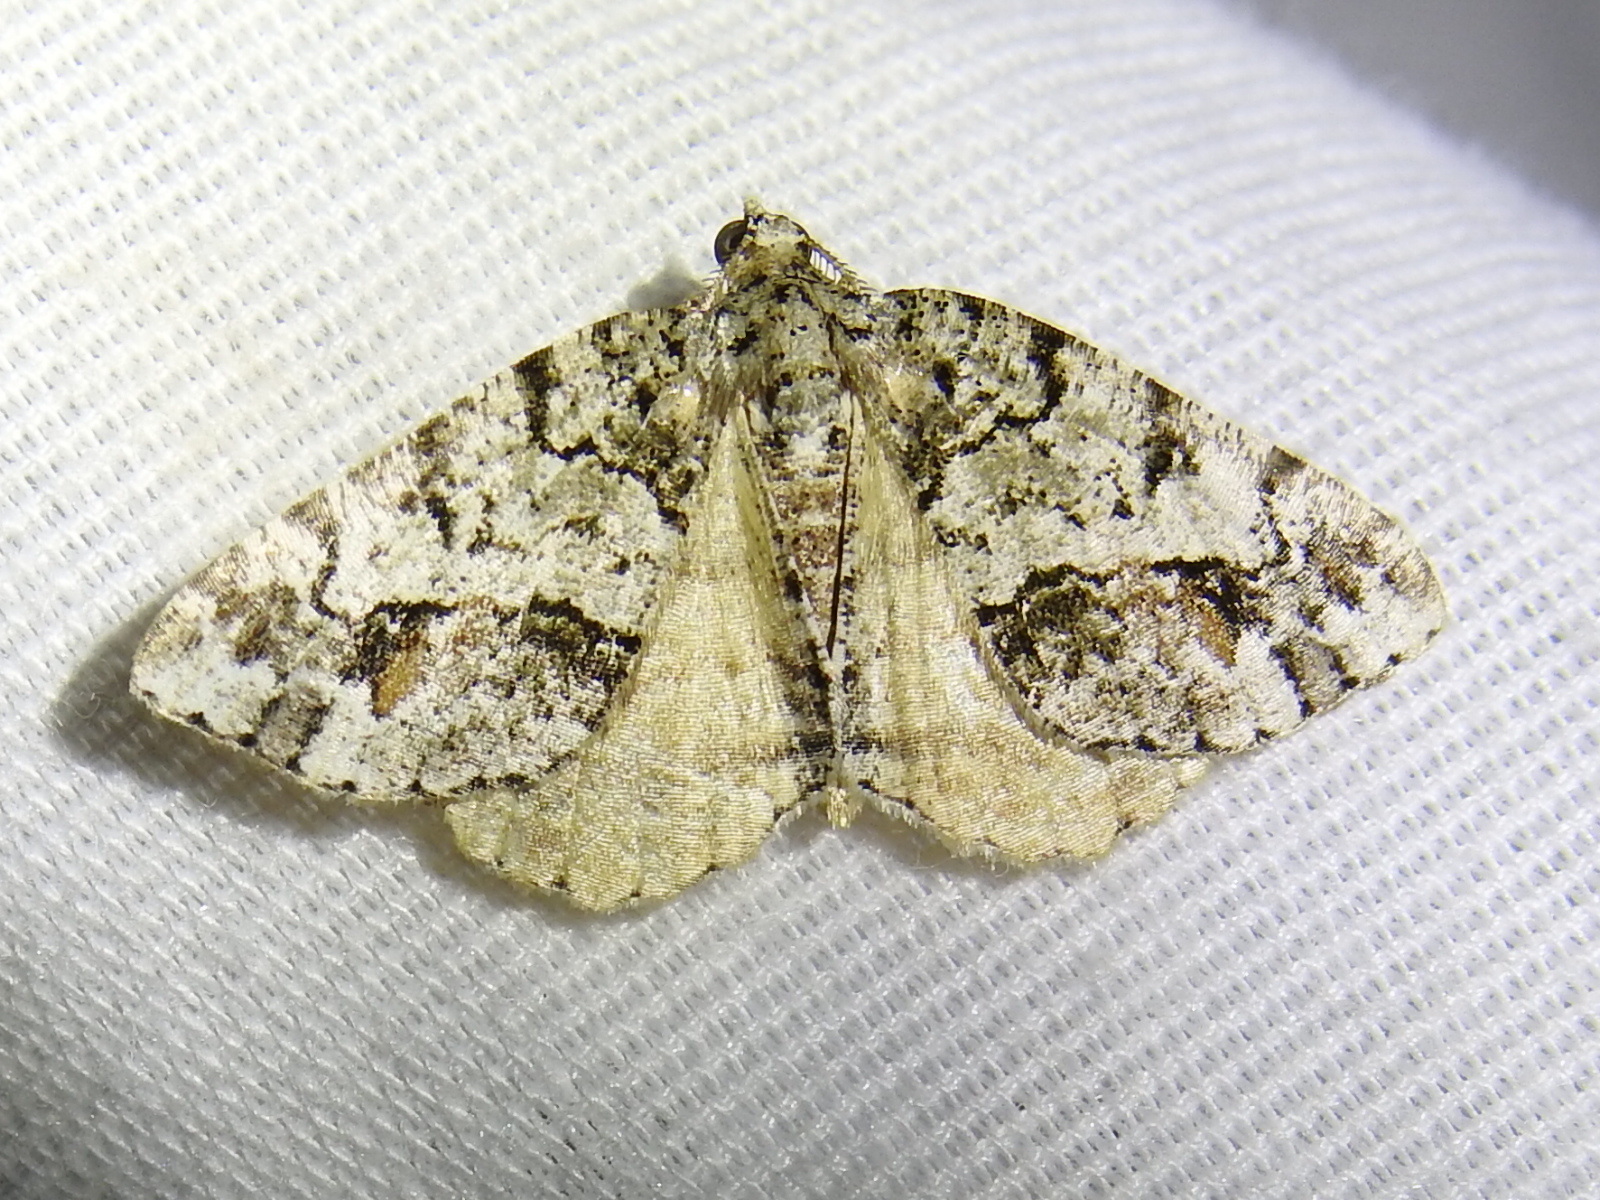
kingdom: Animalia
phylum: Arthropoda
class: Insecta
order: Lepidoptera
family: Geometridae
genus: Macaria
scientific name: Macaria graphidaria
